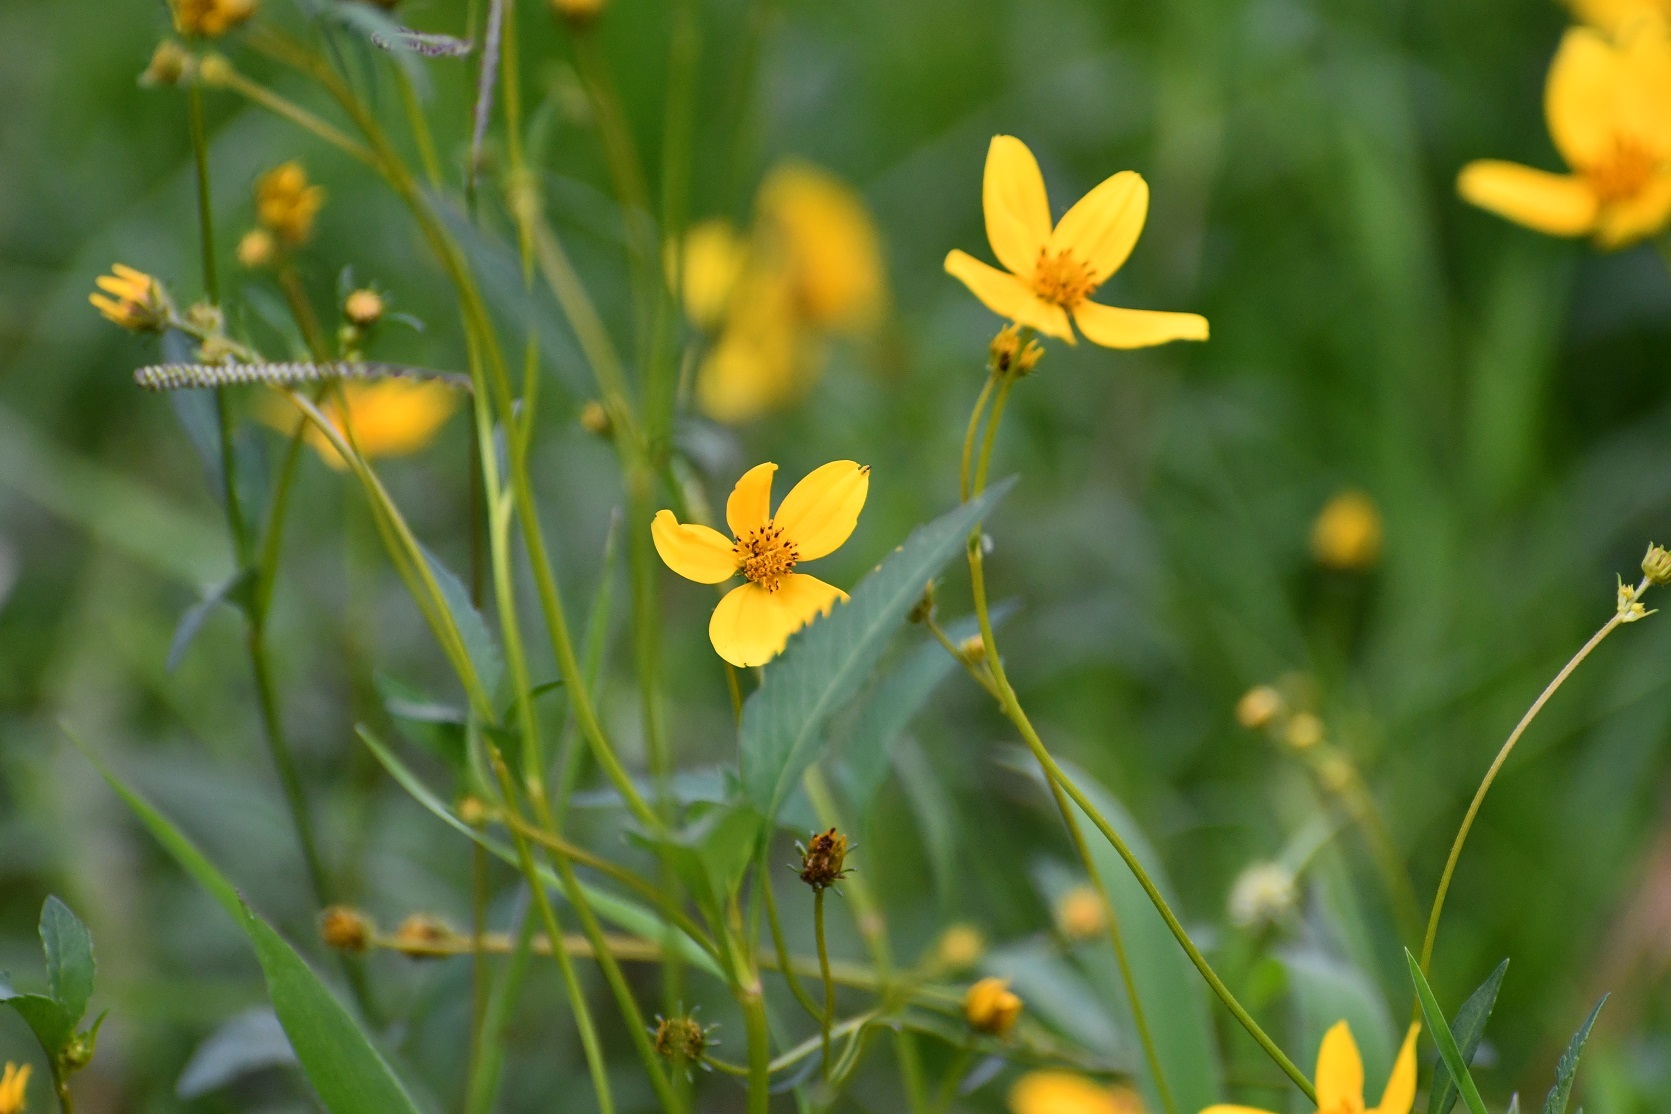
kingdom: Plantae
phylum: Tracheophyta
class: Magnoliopsida
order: Asterales
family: Asteraceae
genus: Bidens
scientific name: Bidens aurea
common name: Arizona beggar-ticks
